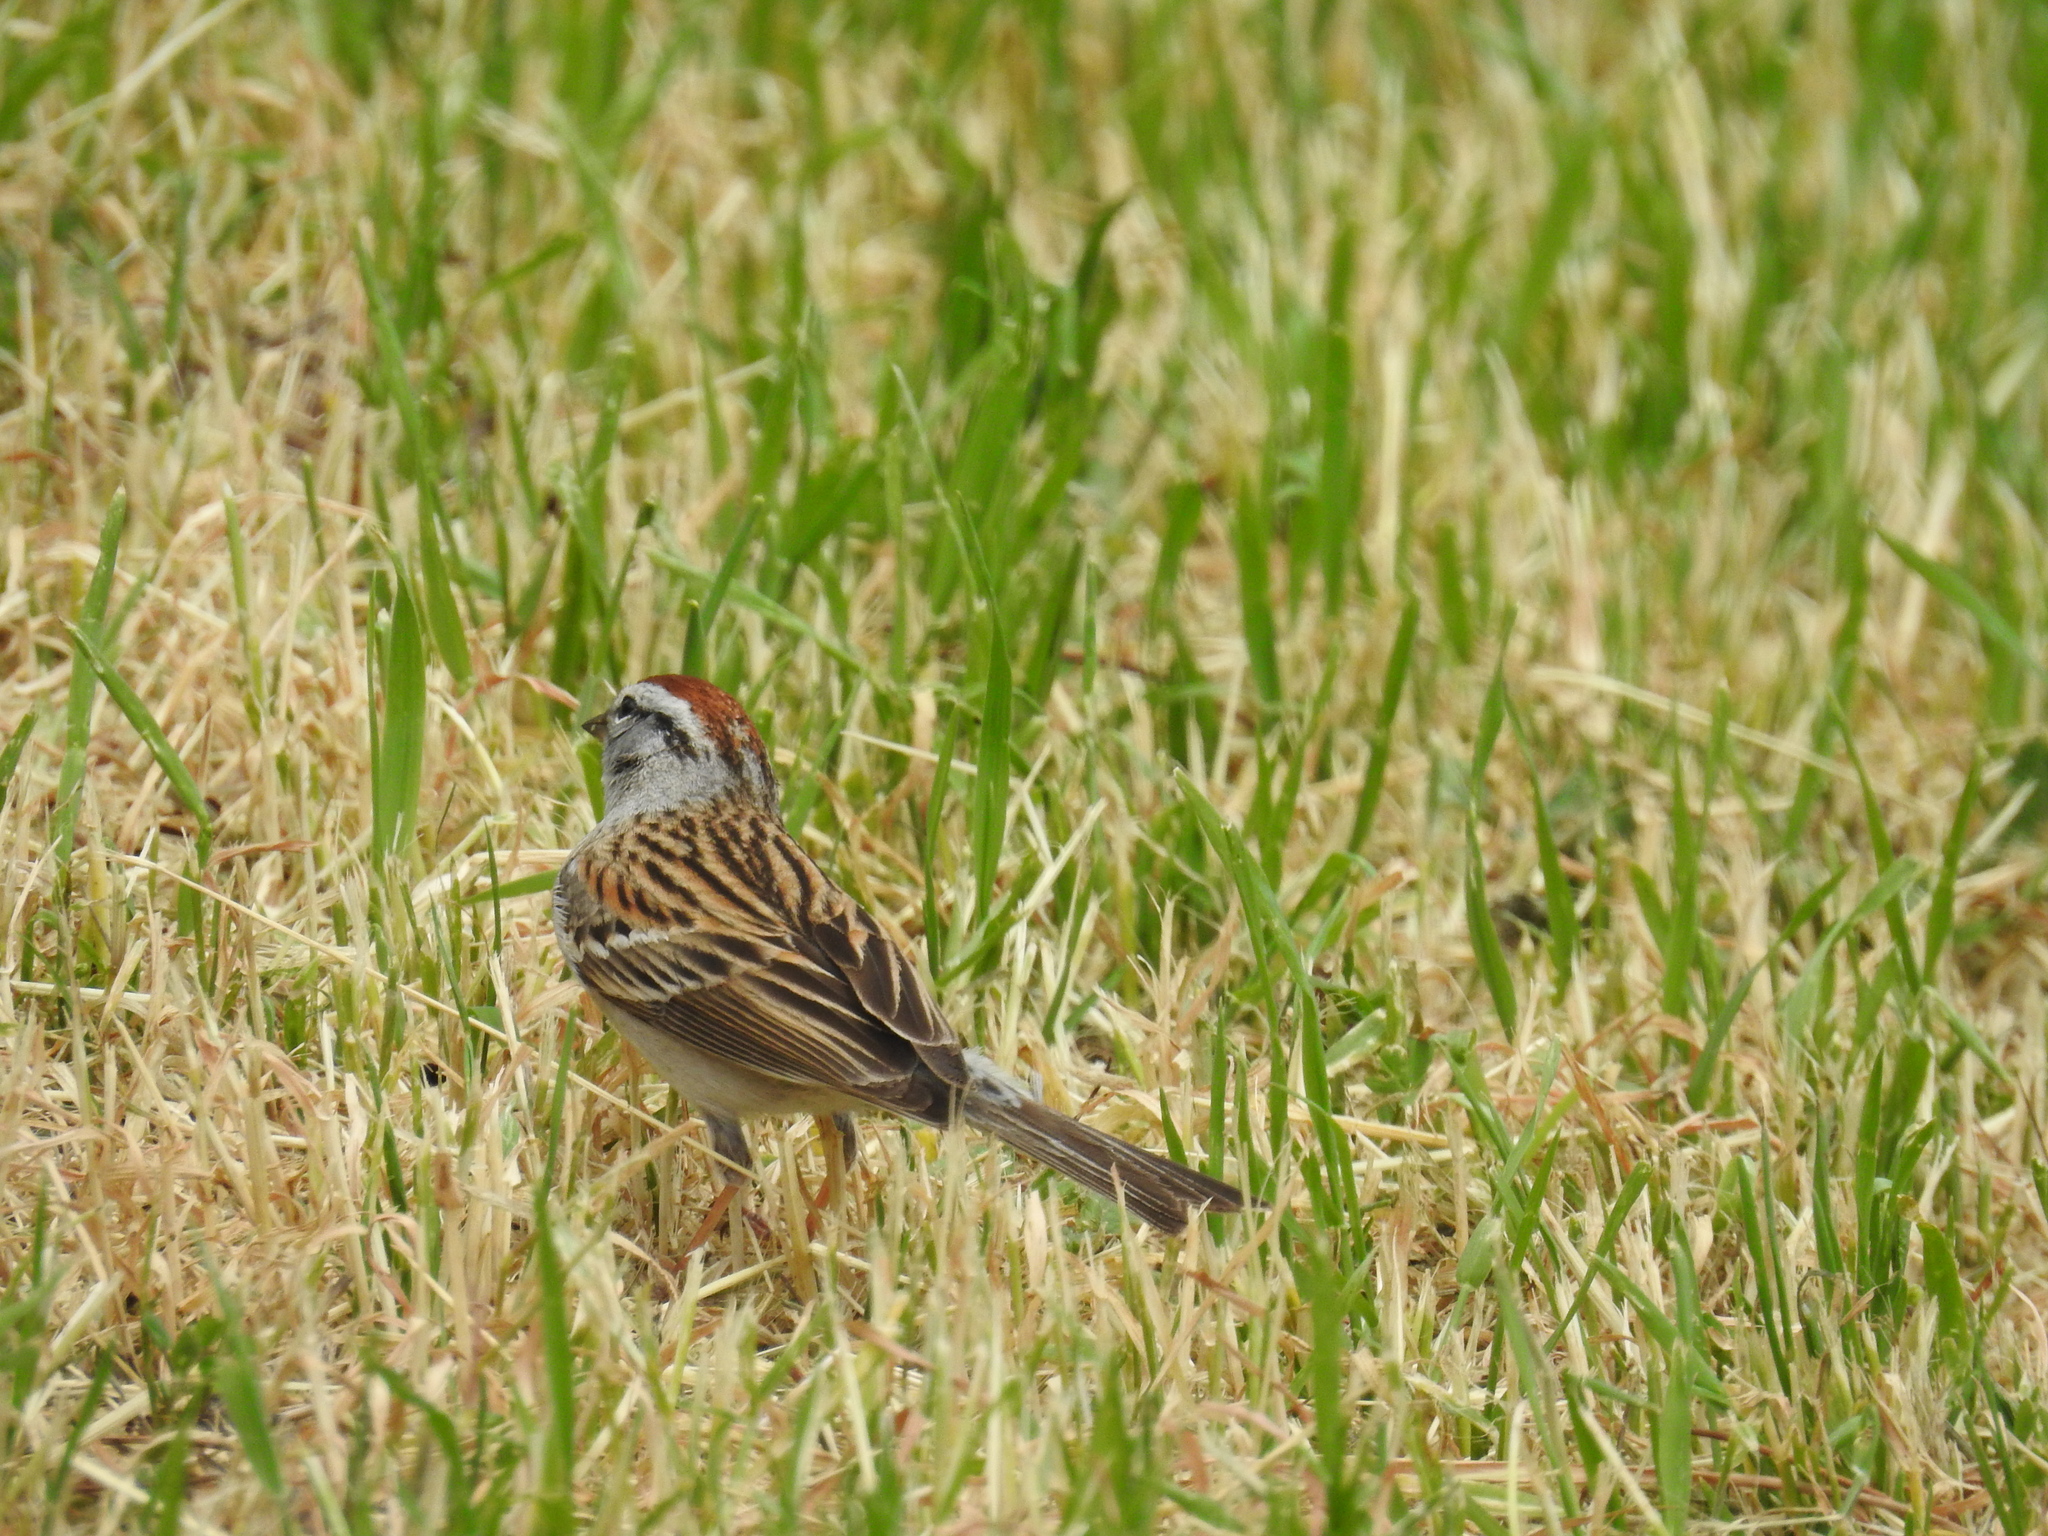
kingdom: Animalia
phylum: Chordata
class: Aves
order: Passeriformes
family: Passerellidae
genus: Spizella
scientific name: Spizella passerina
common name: Chipping sparrow
